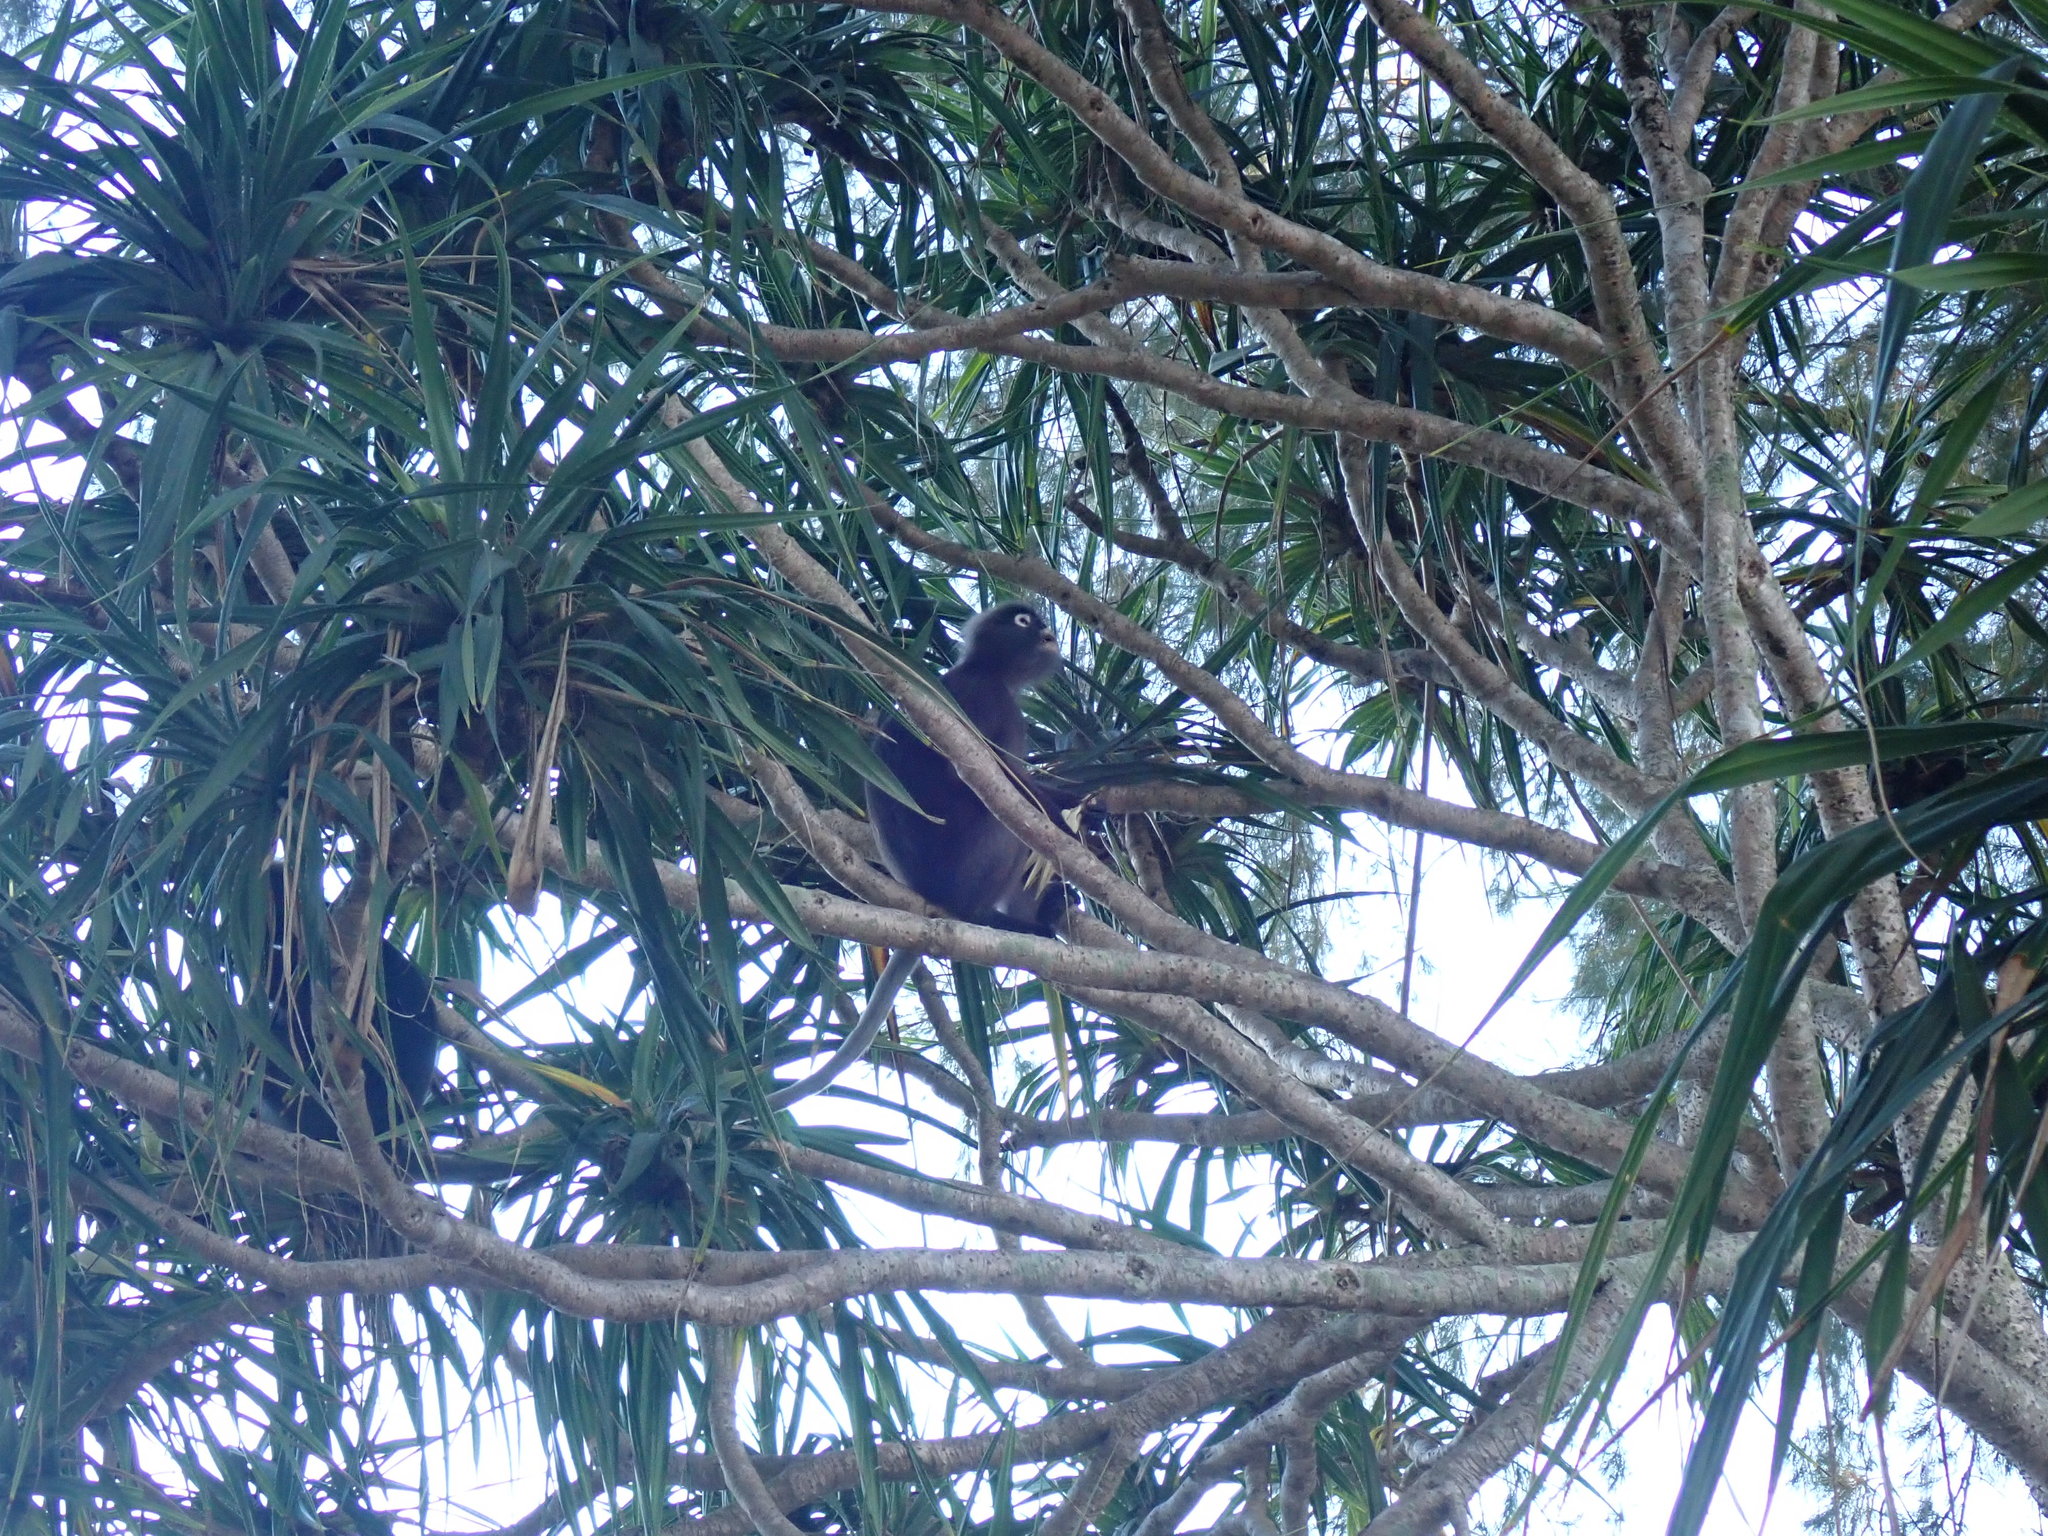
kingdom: Animalia
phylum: Chordata
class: Mammalia
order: Primates
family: Cercopithecidae
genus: Trachypithecus
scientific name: Trachypithecus obscurus
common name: Dusky leaf-monkey
